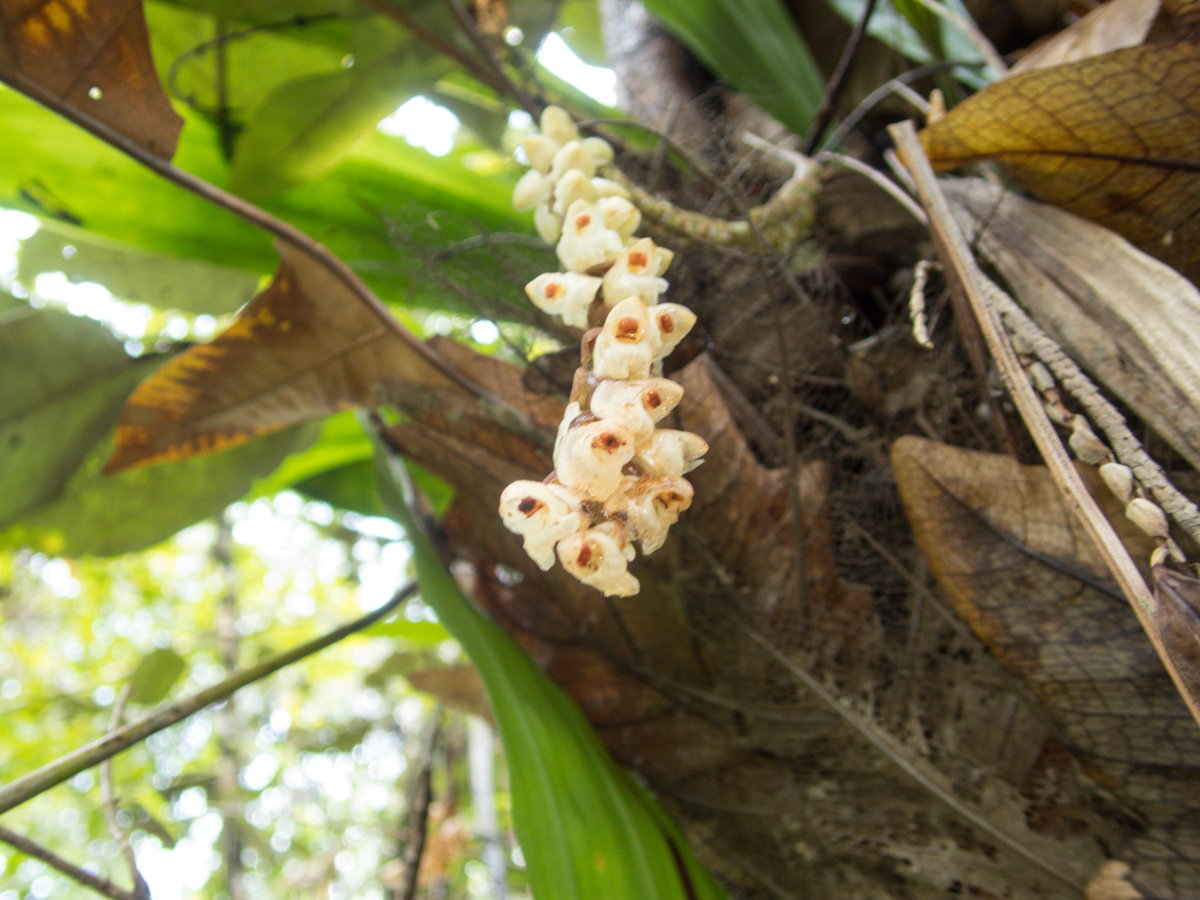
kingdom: Plantae
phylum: Tracheophyta
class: Liliopsida
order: Asparagales
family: Orchidaceae
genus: Pholidota
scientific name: Pholidota imbricata
